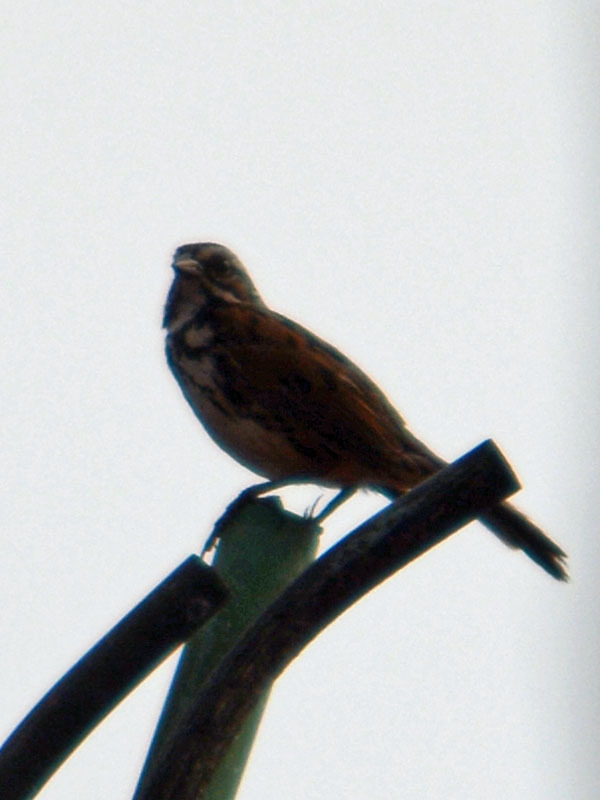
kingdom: Animalia
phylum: Chordata
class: Aves
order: Passeriformes
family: Passerellidae
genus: Melospiza
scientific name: Melospiza melodia
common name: Song sparrow
